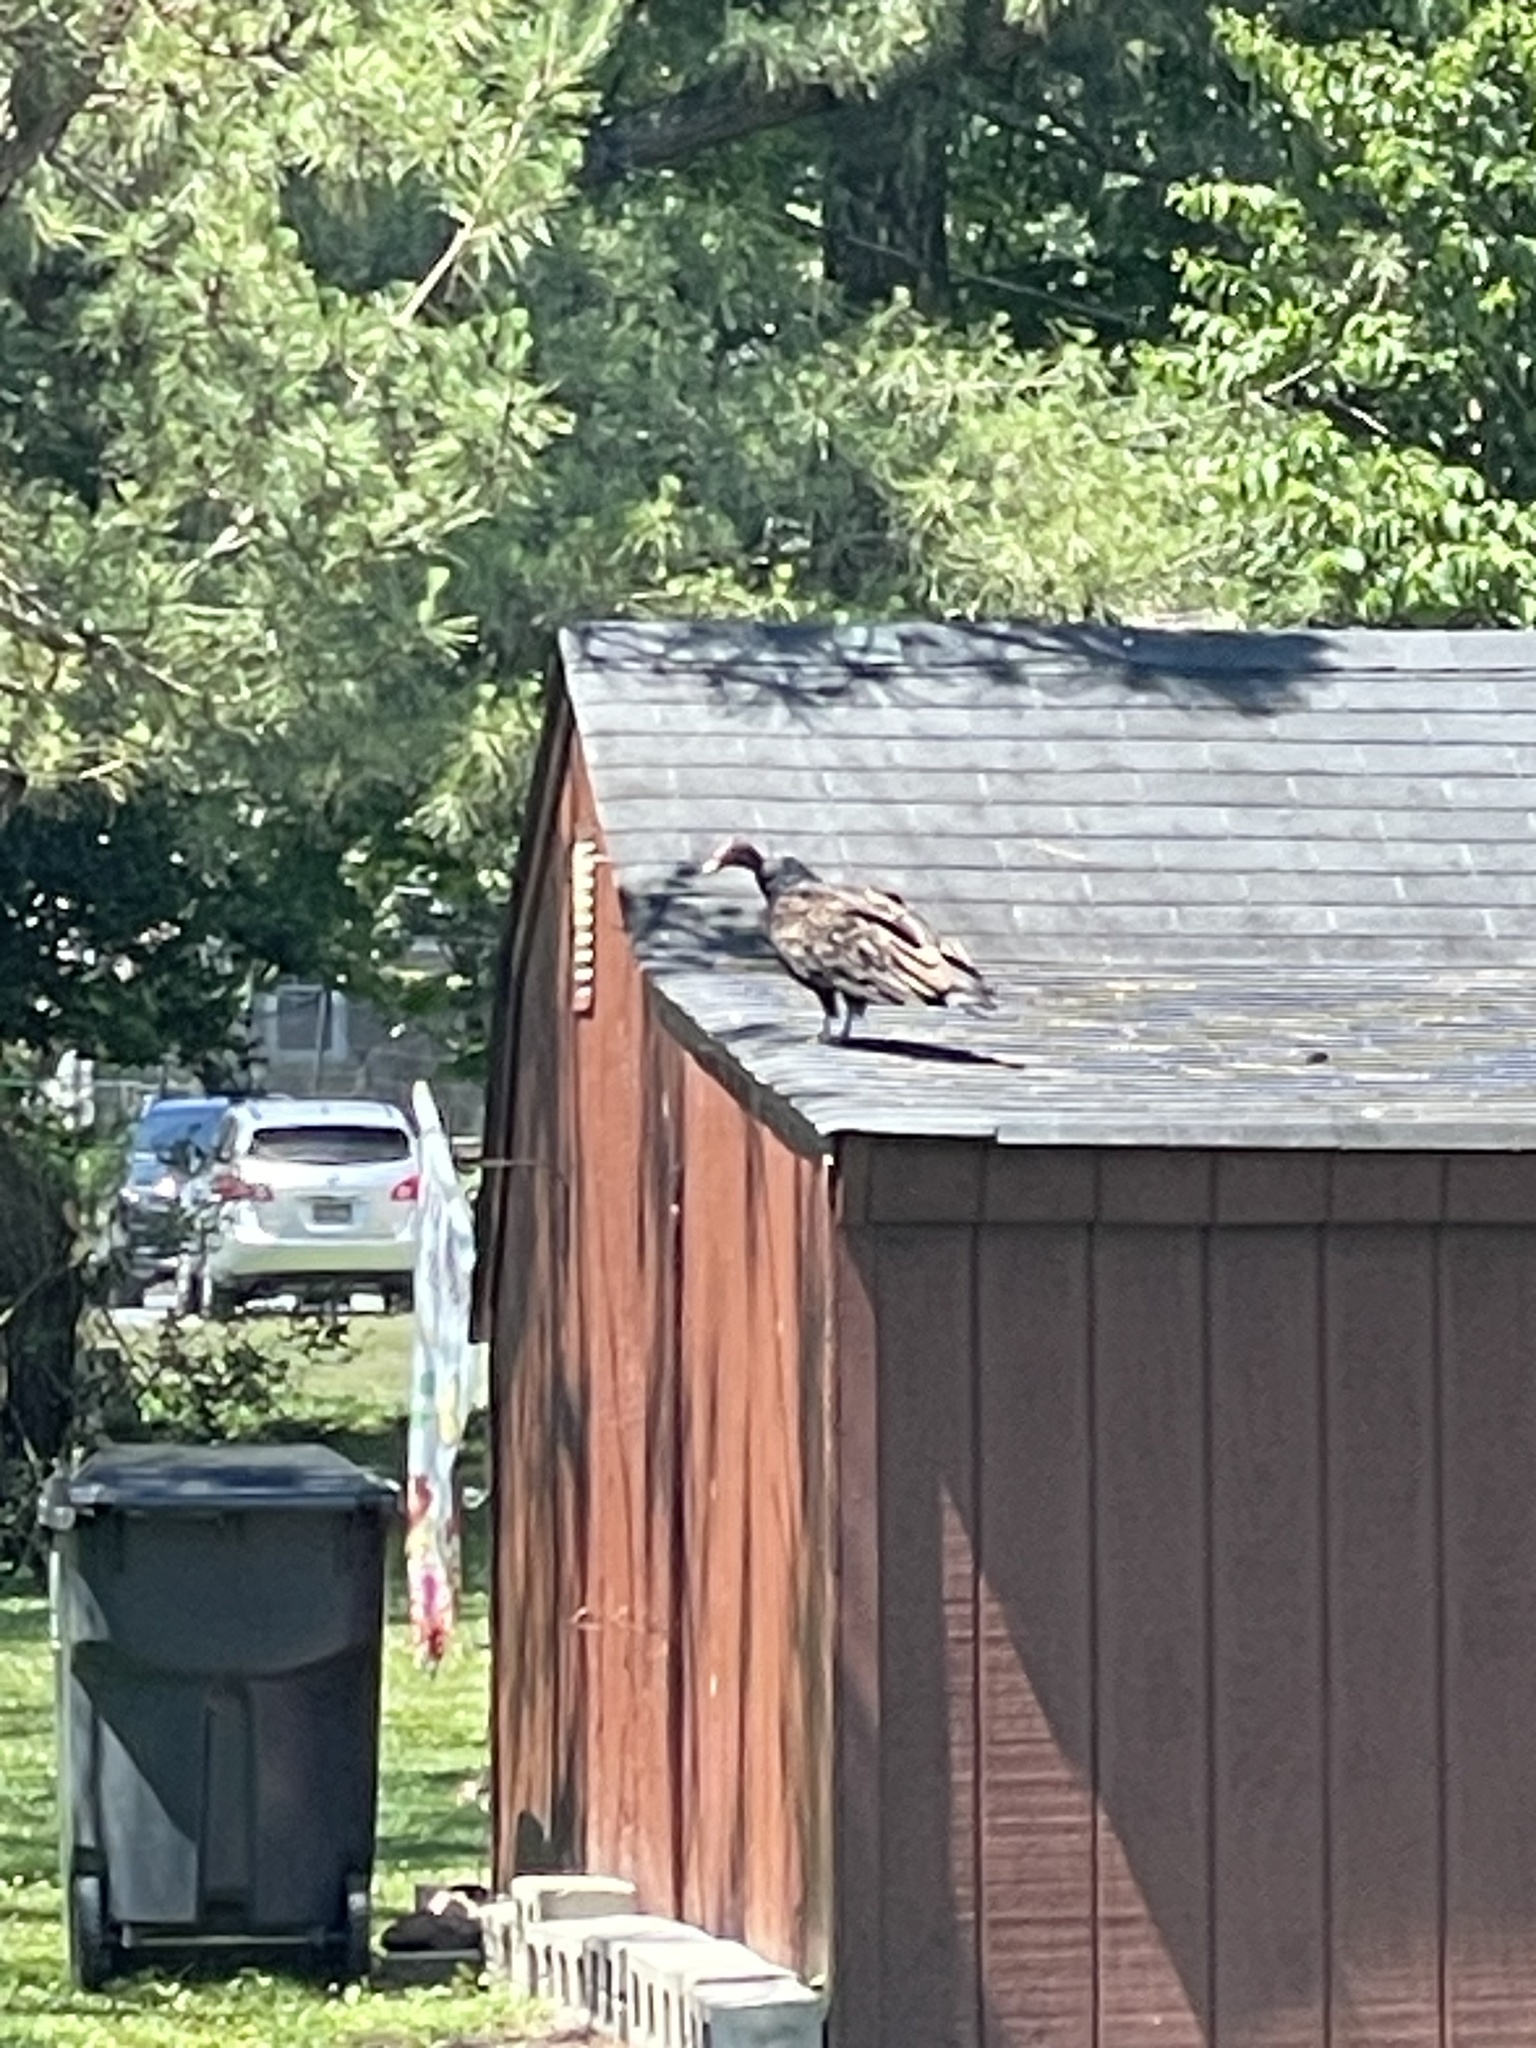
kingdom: Animalia
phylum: Chordata
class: Aves
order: Accipitriformes
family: Cathartidae
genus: Cathartes
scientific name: Cathartes aura
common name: Turkey vulture
